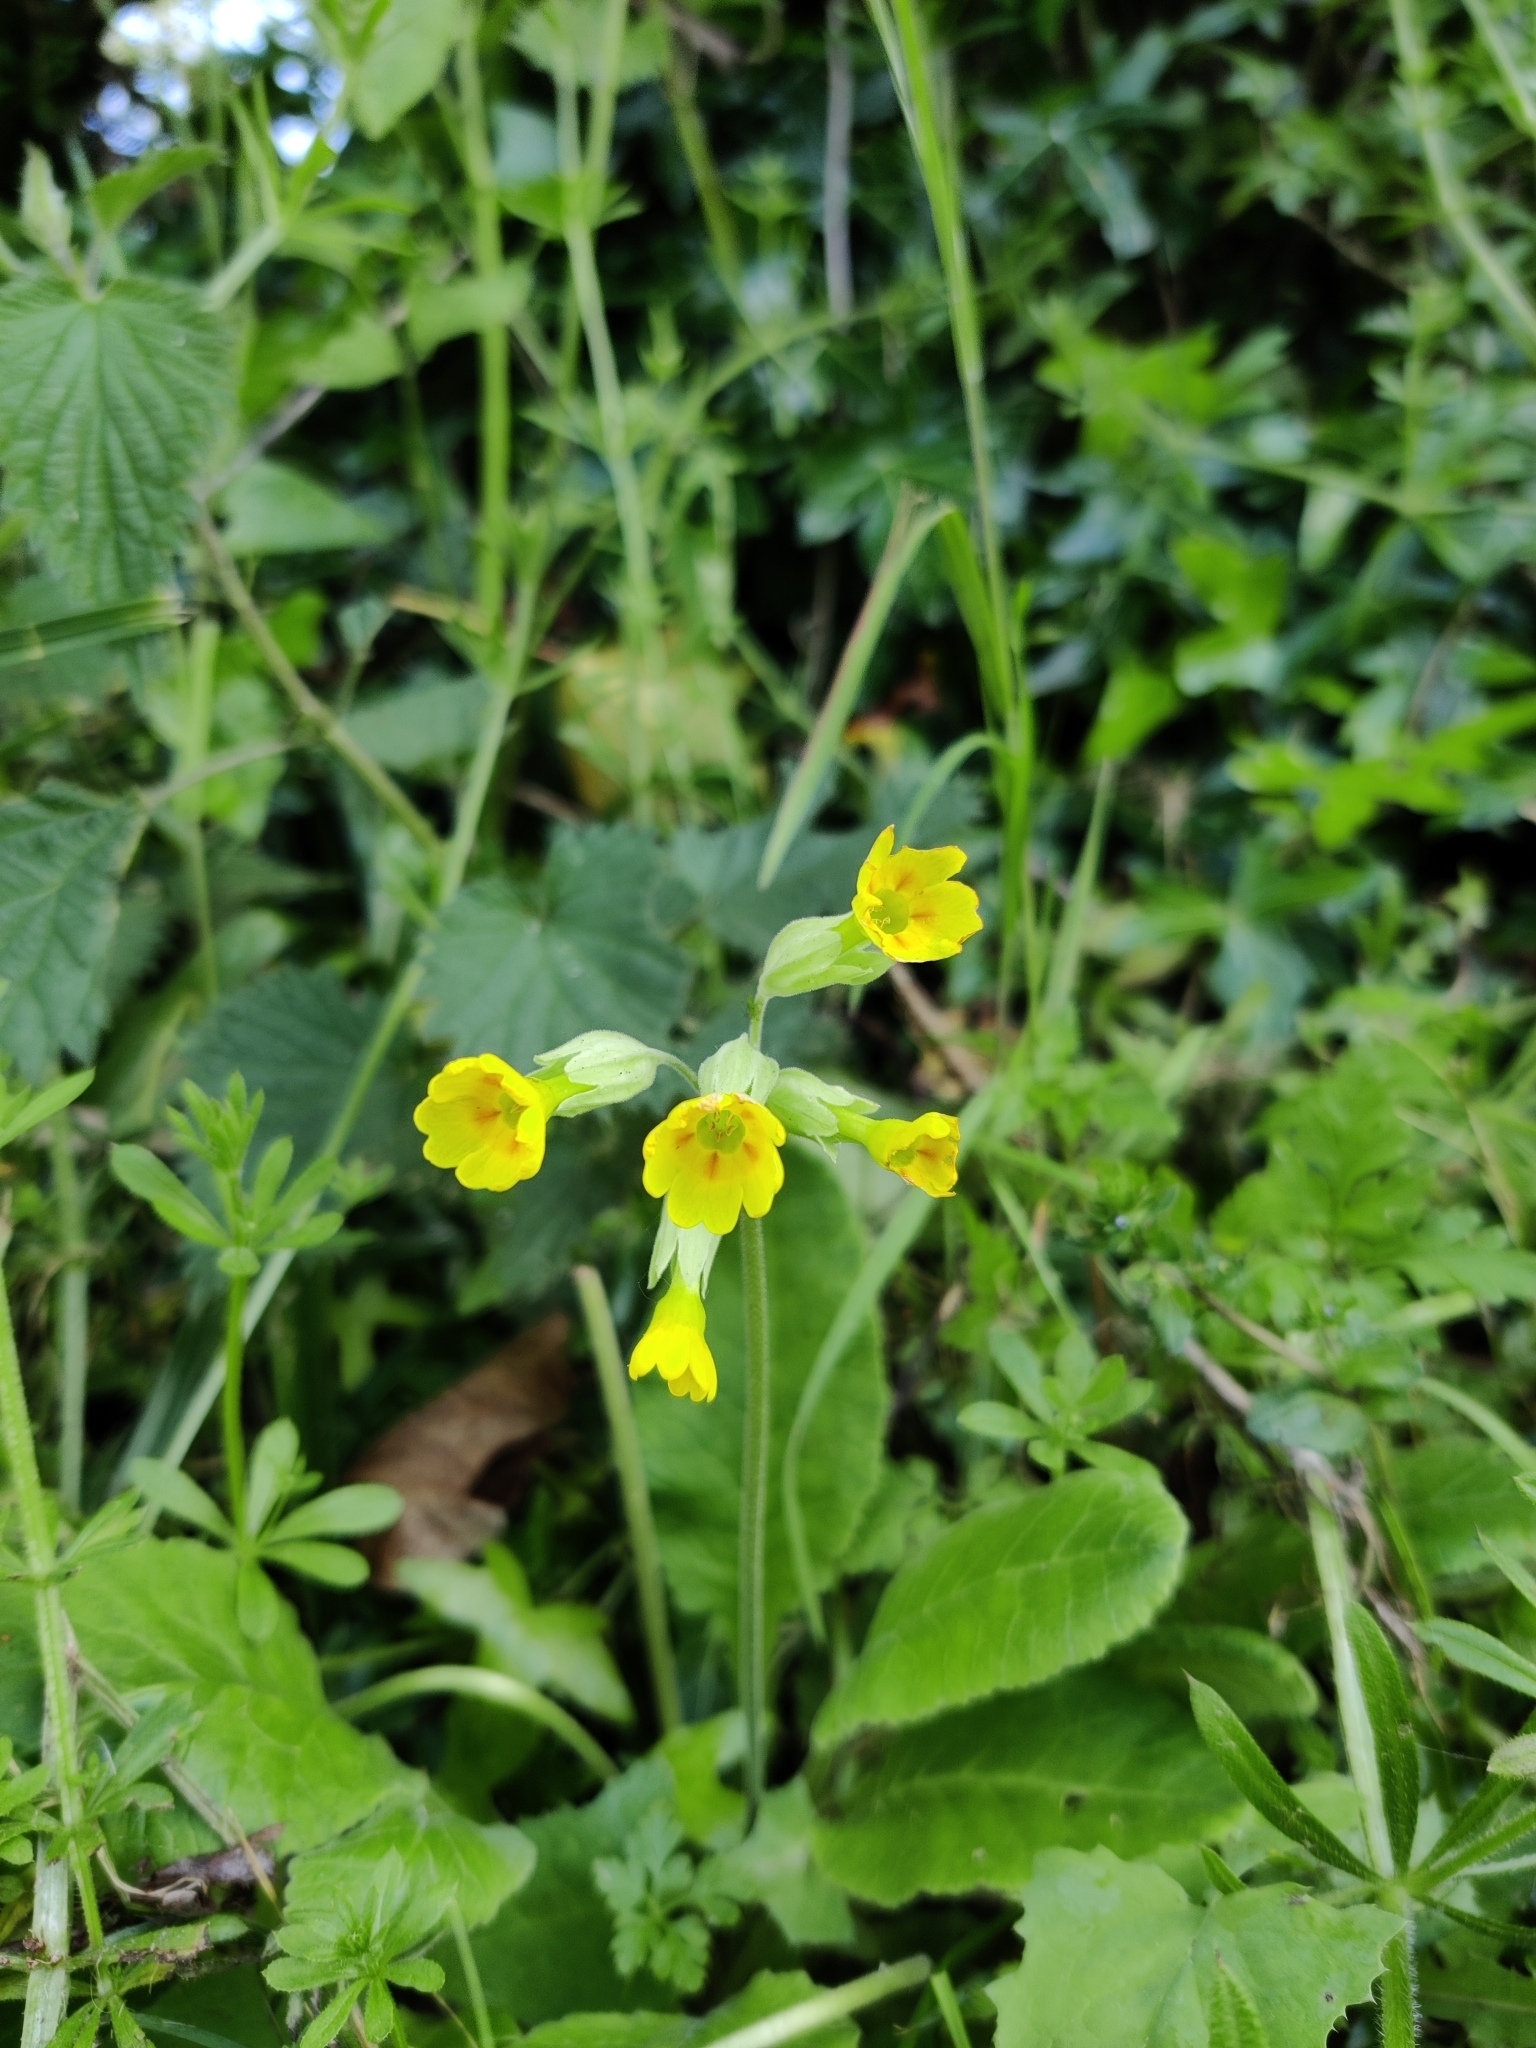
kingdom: Plantae
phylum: Tracheophyta
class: Magnoliopsida
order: Ericales
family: Primulaceae
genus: Primula
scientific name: Primula veris
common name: Cowslip
